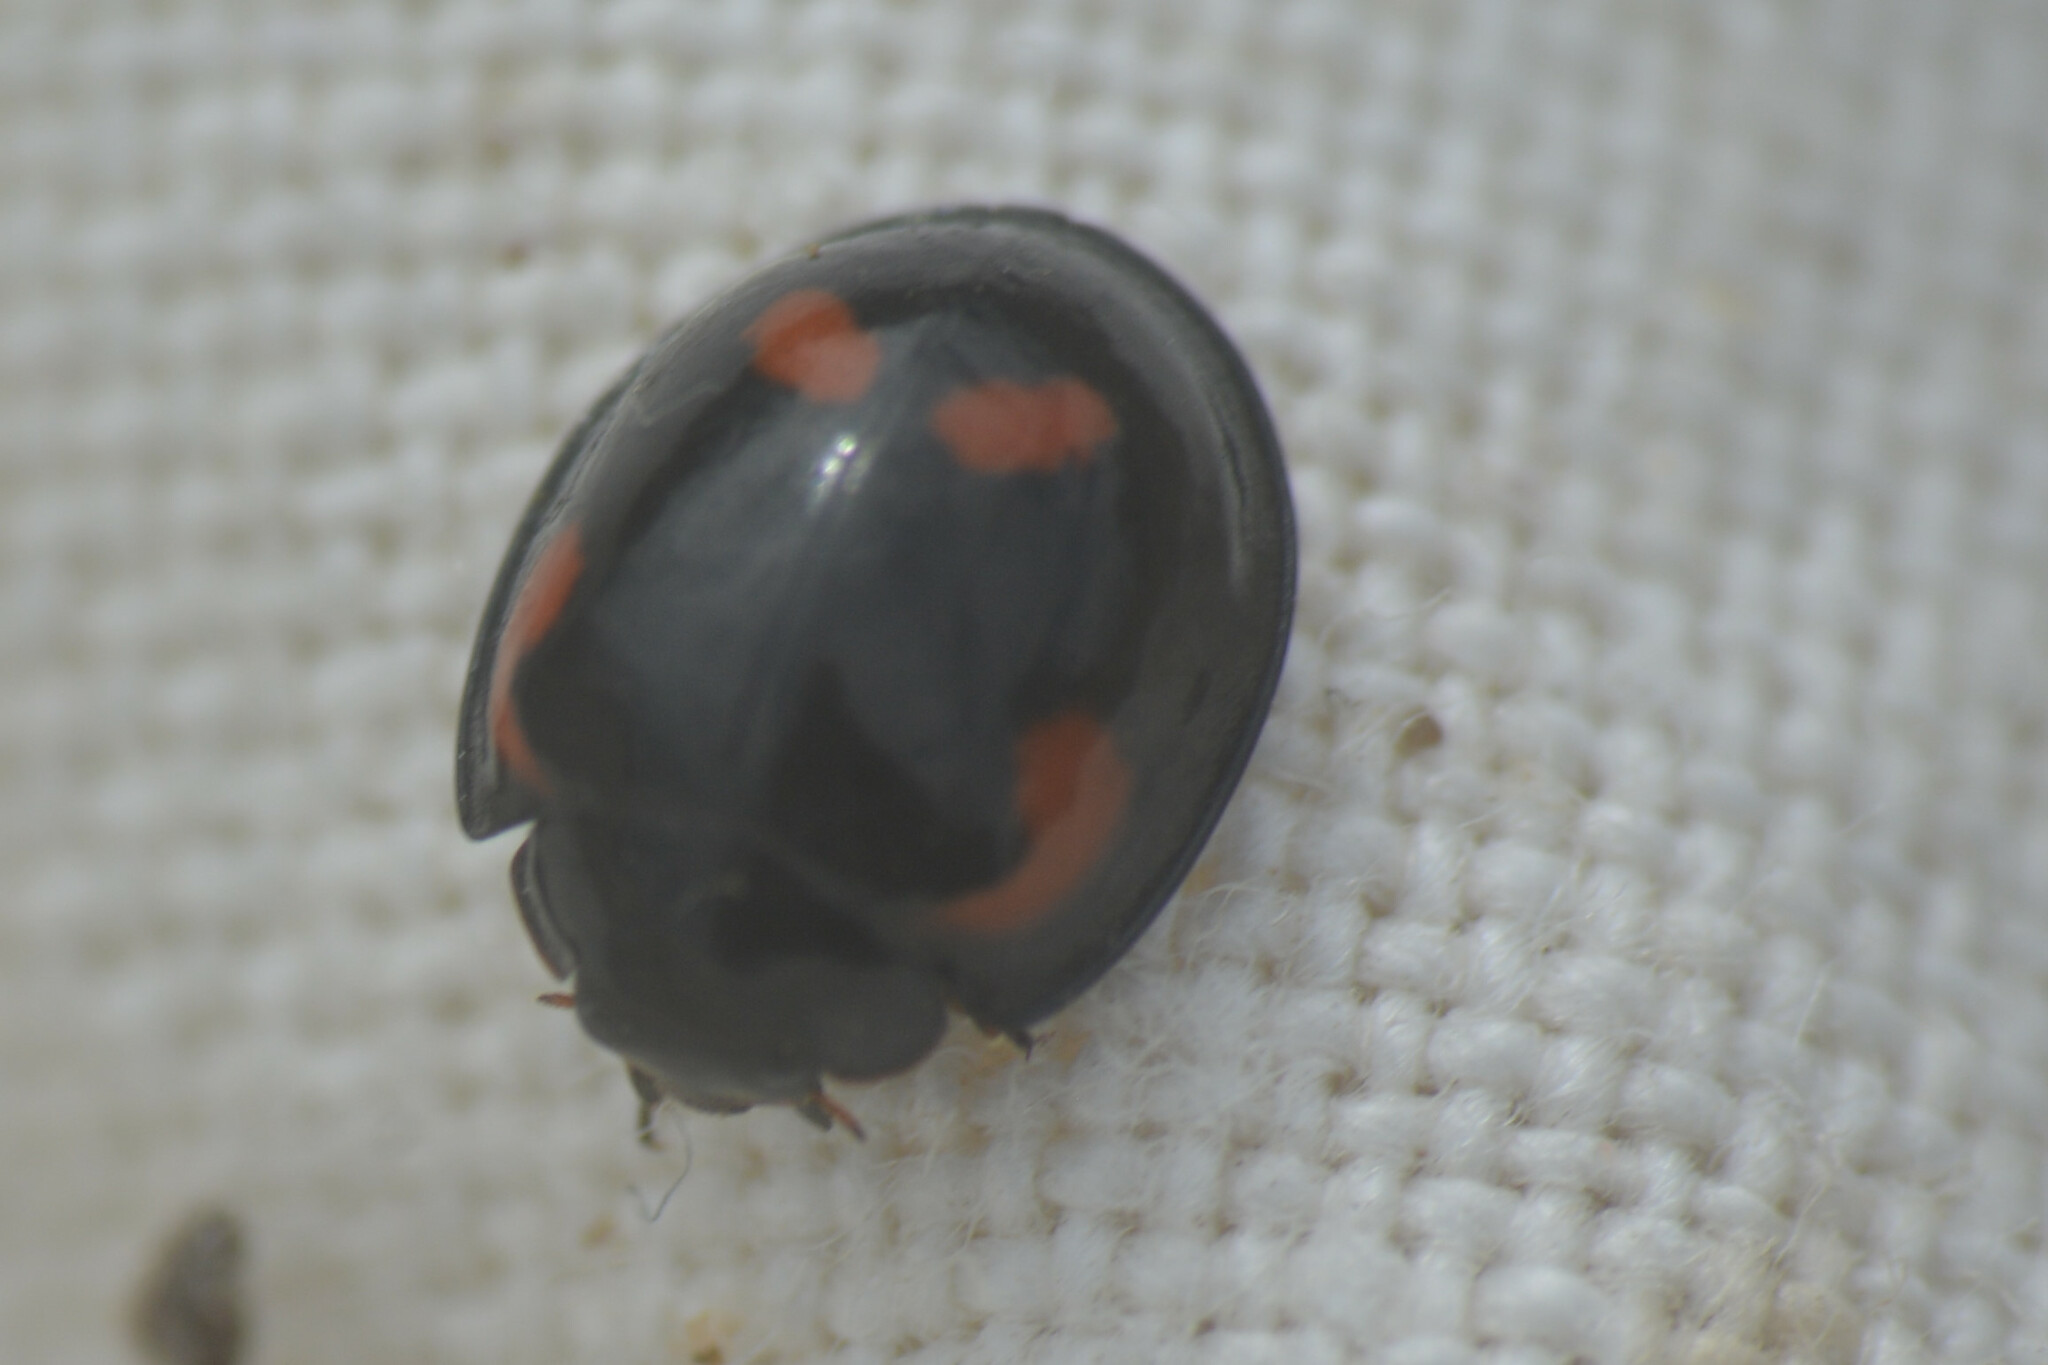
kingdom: Animalia
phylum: Arthropoda
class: Insecta
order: Coleoptera
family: Coccinellidae
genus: Brumus
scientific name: Brumus quadripustulatus
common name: Ladybird beetle
